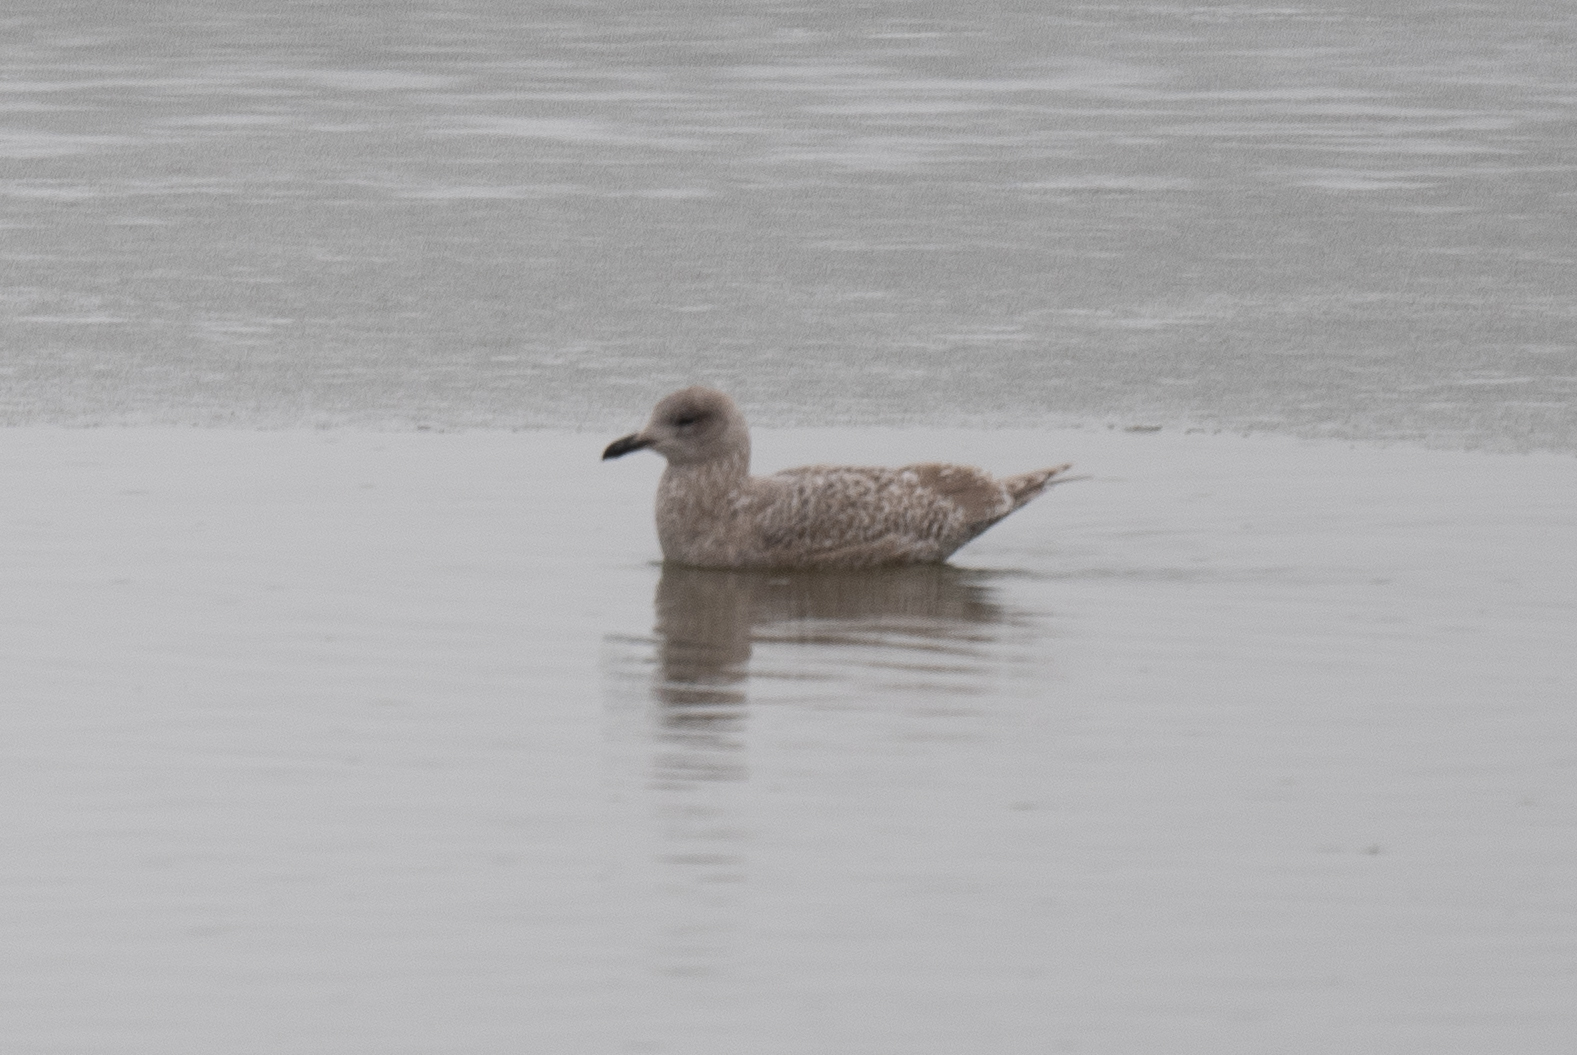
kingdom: Animalia
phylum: Chordata
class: Aves
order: Charadriiformes
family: Laridae
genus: Larus
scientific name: Larus glaucoides
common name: Iceland gull
